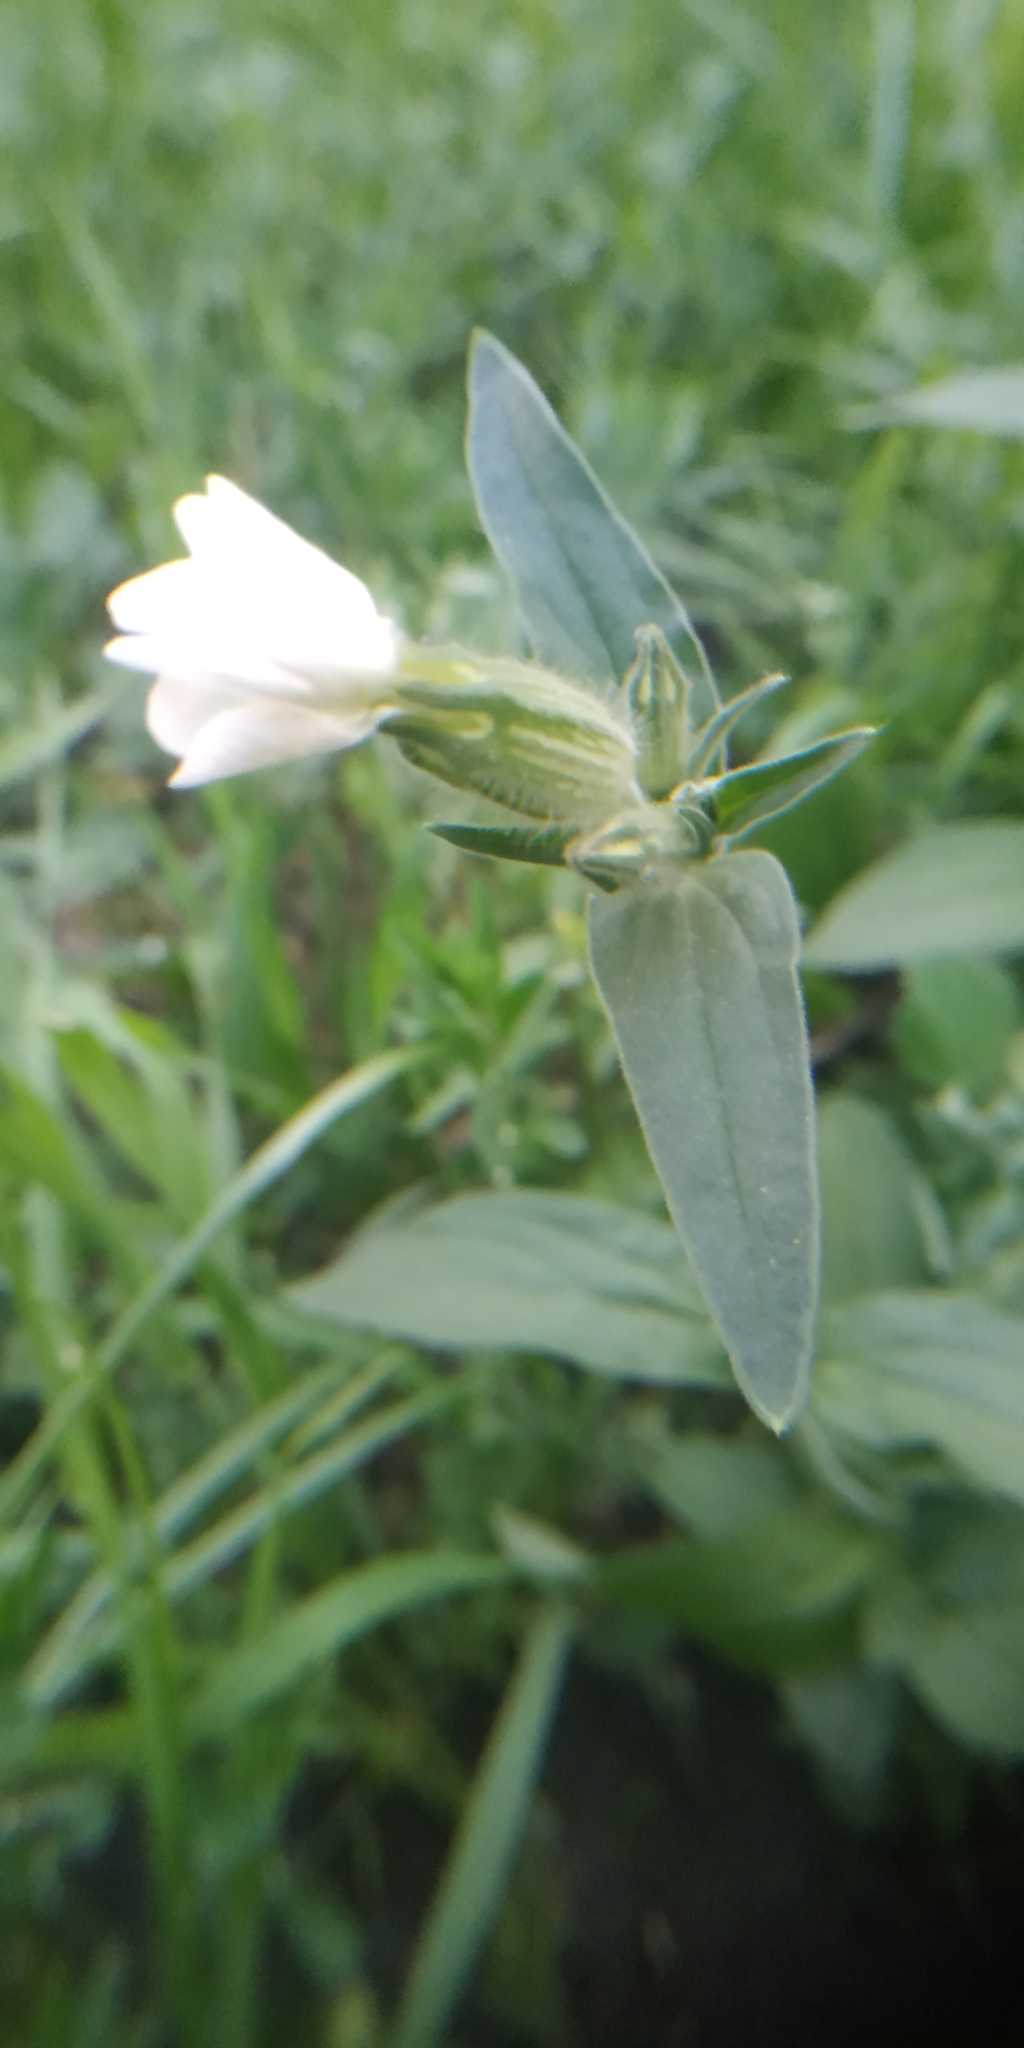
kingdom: Plantae
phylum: Tracheophyta
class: Magnoliopsida
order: Caryophyllales
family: Caryophyllaceae
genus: Silene
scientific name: Silene latifolia
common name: White campion
